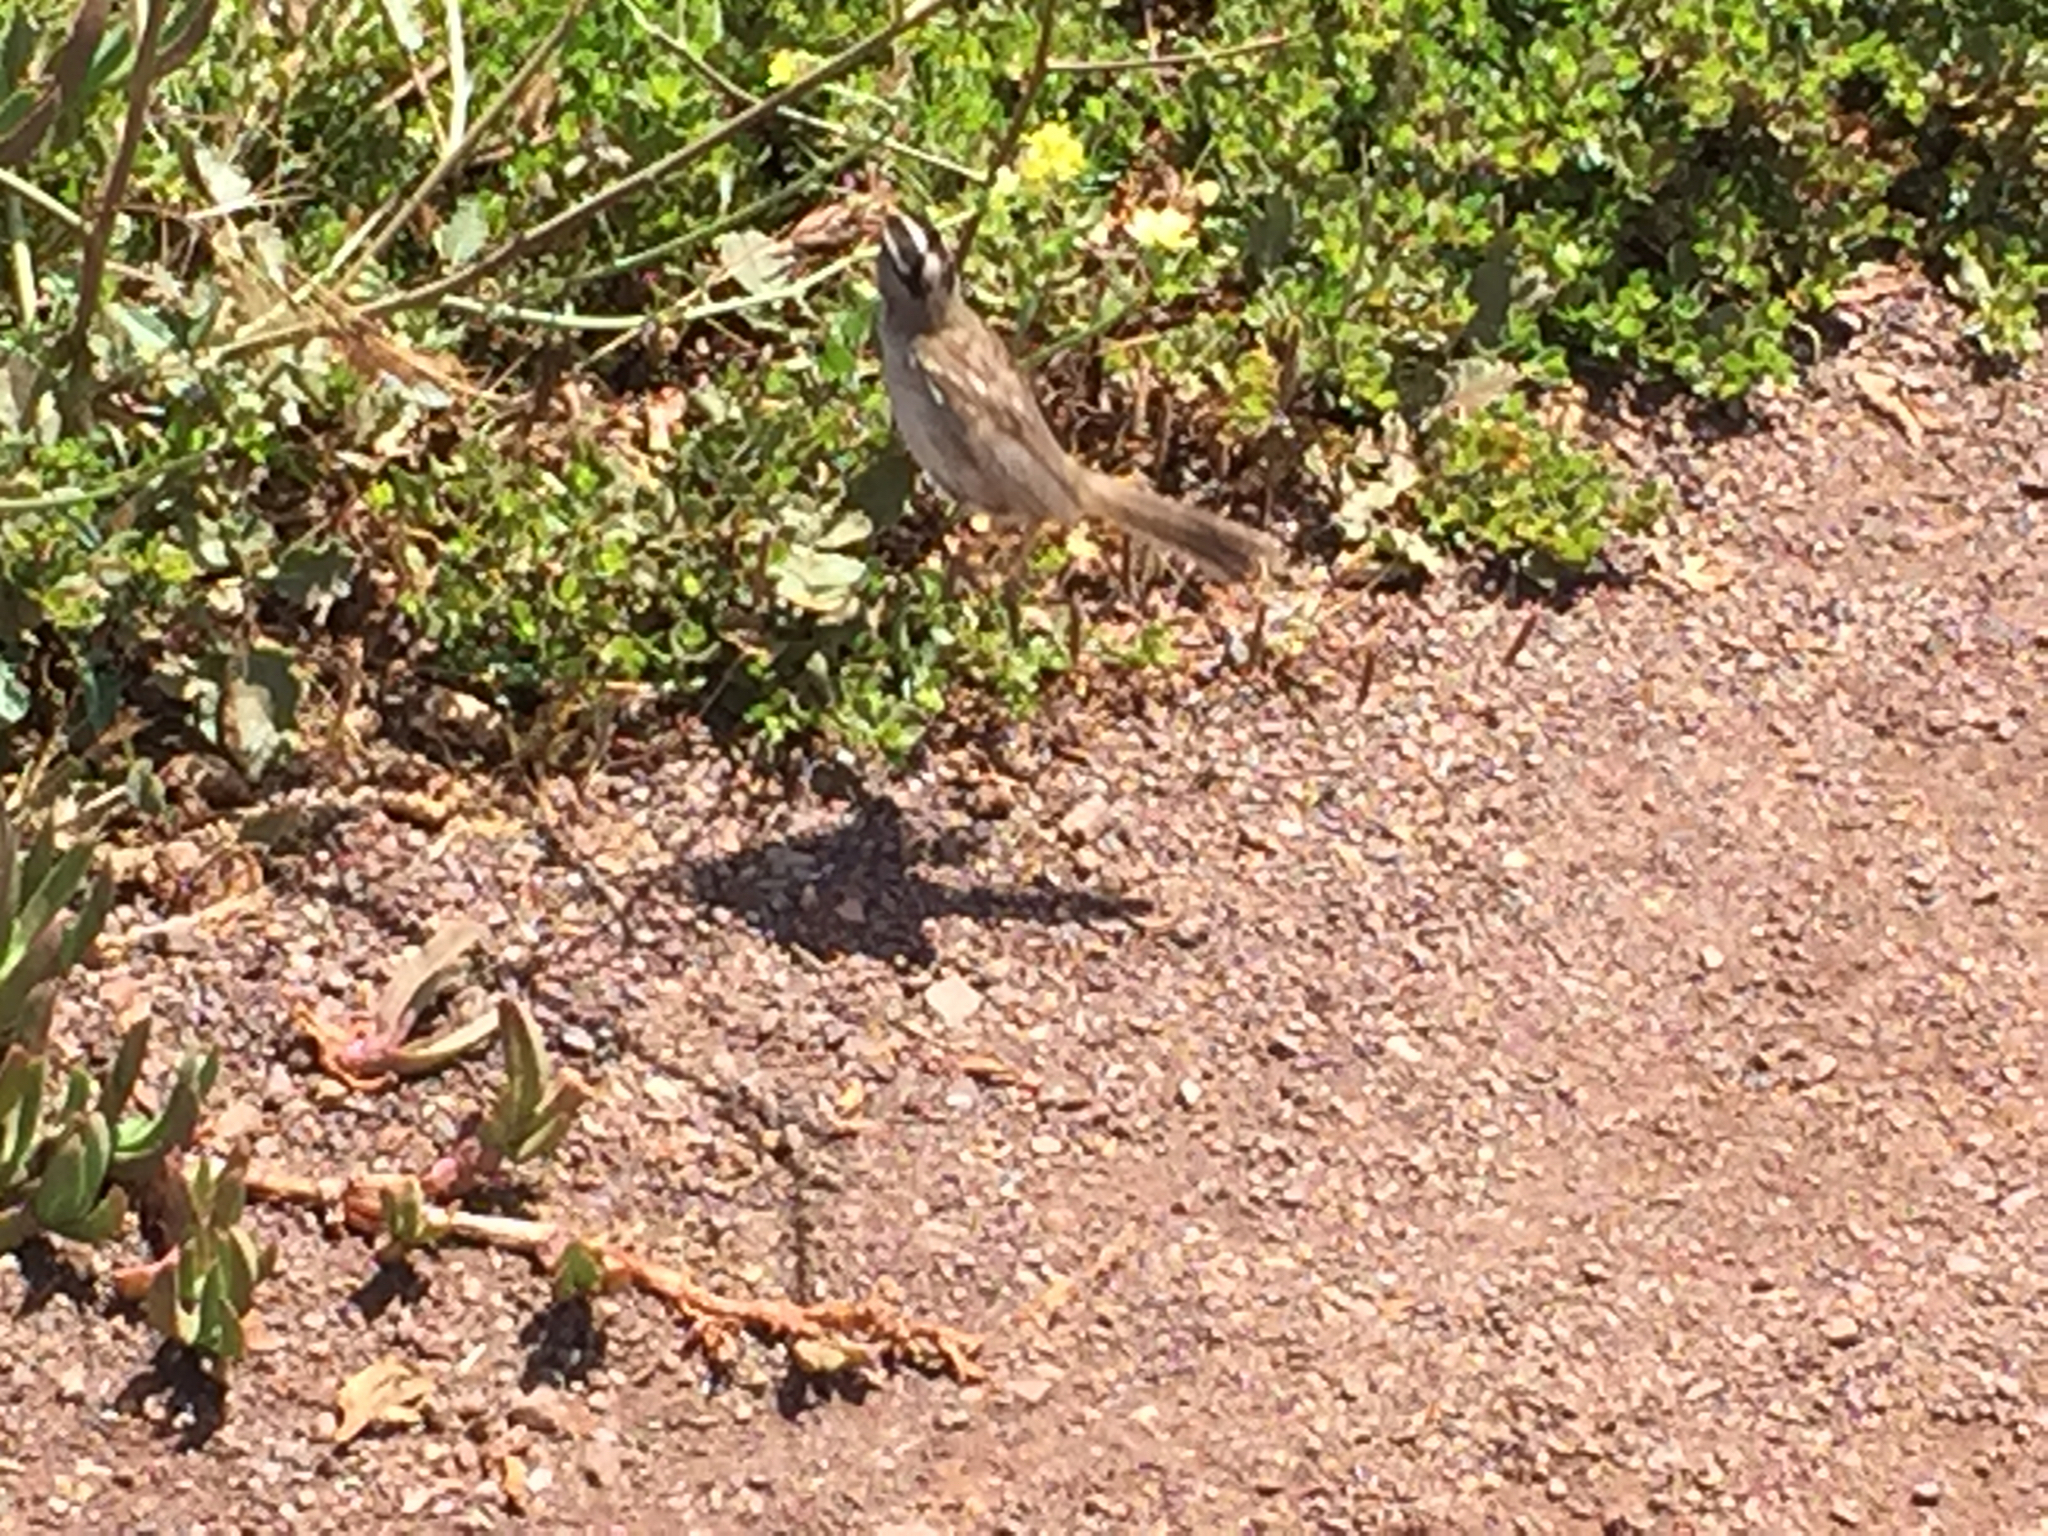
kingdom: Animalia
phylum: Chordata
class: Aves
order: Passeriformes
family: Passerellidae
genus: Zonotrichia
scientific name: Zonotrichia leucophrys
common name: White-crowned sparrow
